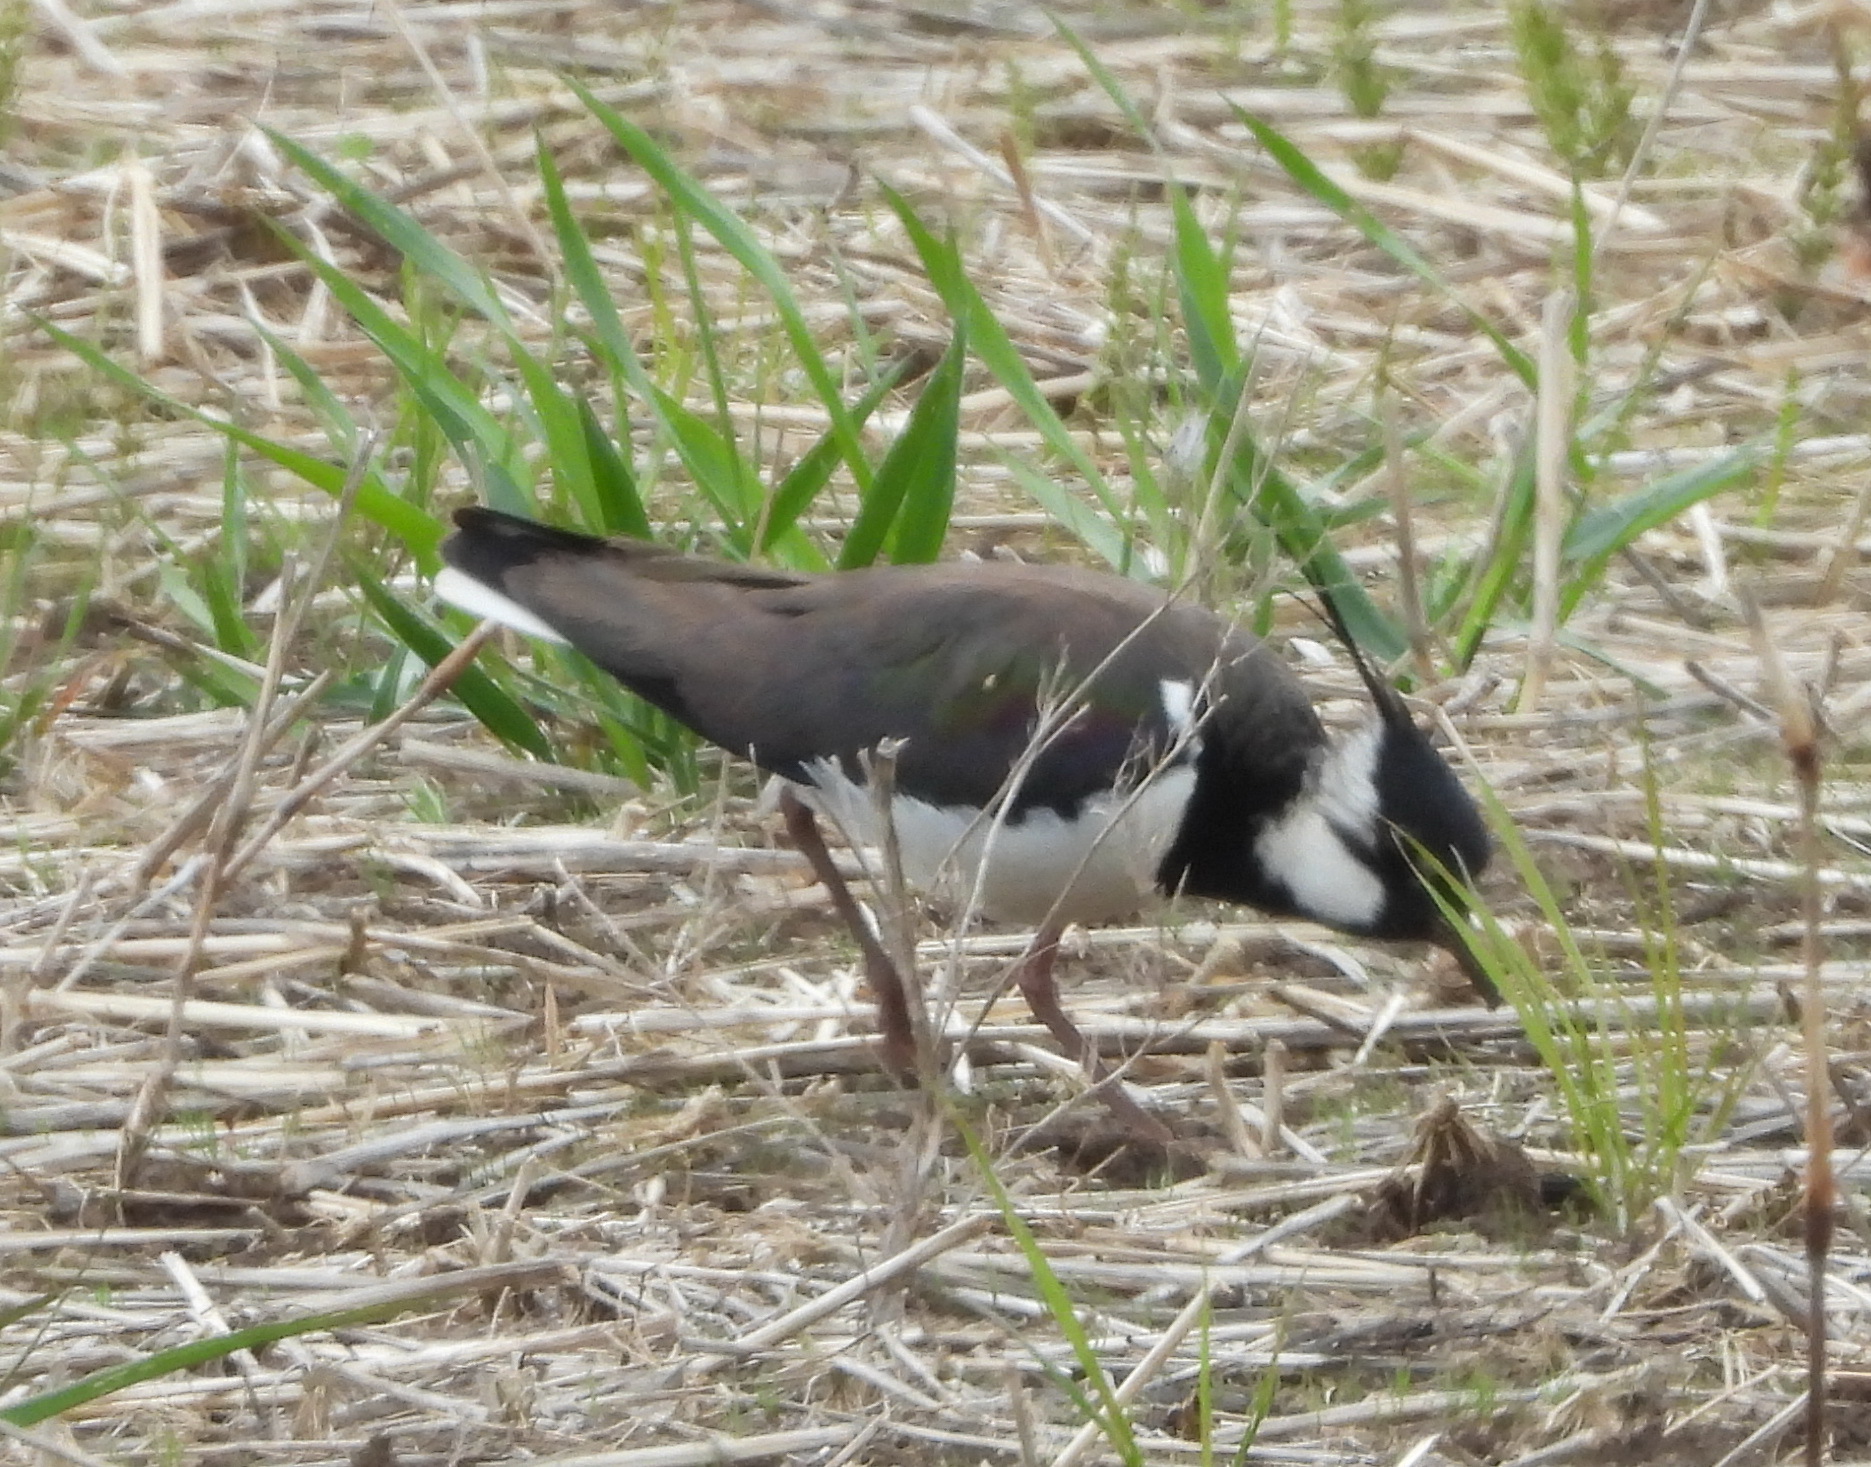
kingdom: Animalia
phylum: Chordata
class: Aves
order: Charadriiformes
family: Charadriidae
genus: Vanellus
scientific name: Vanellus vanellus
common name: Northern lapwing
